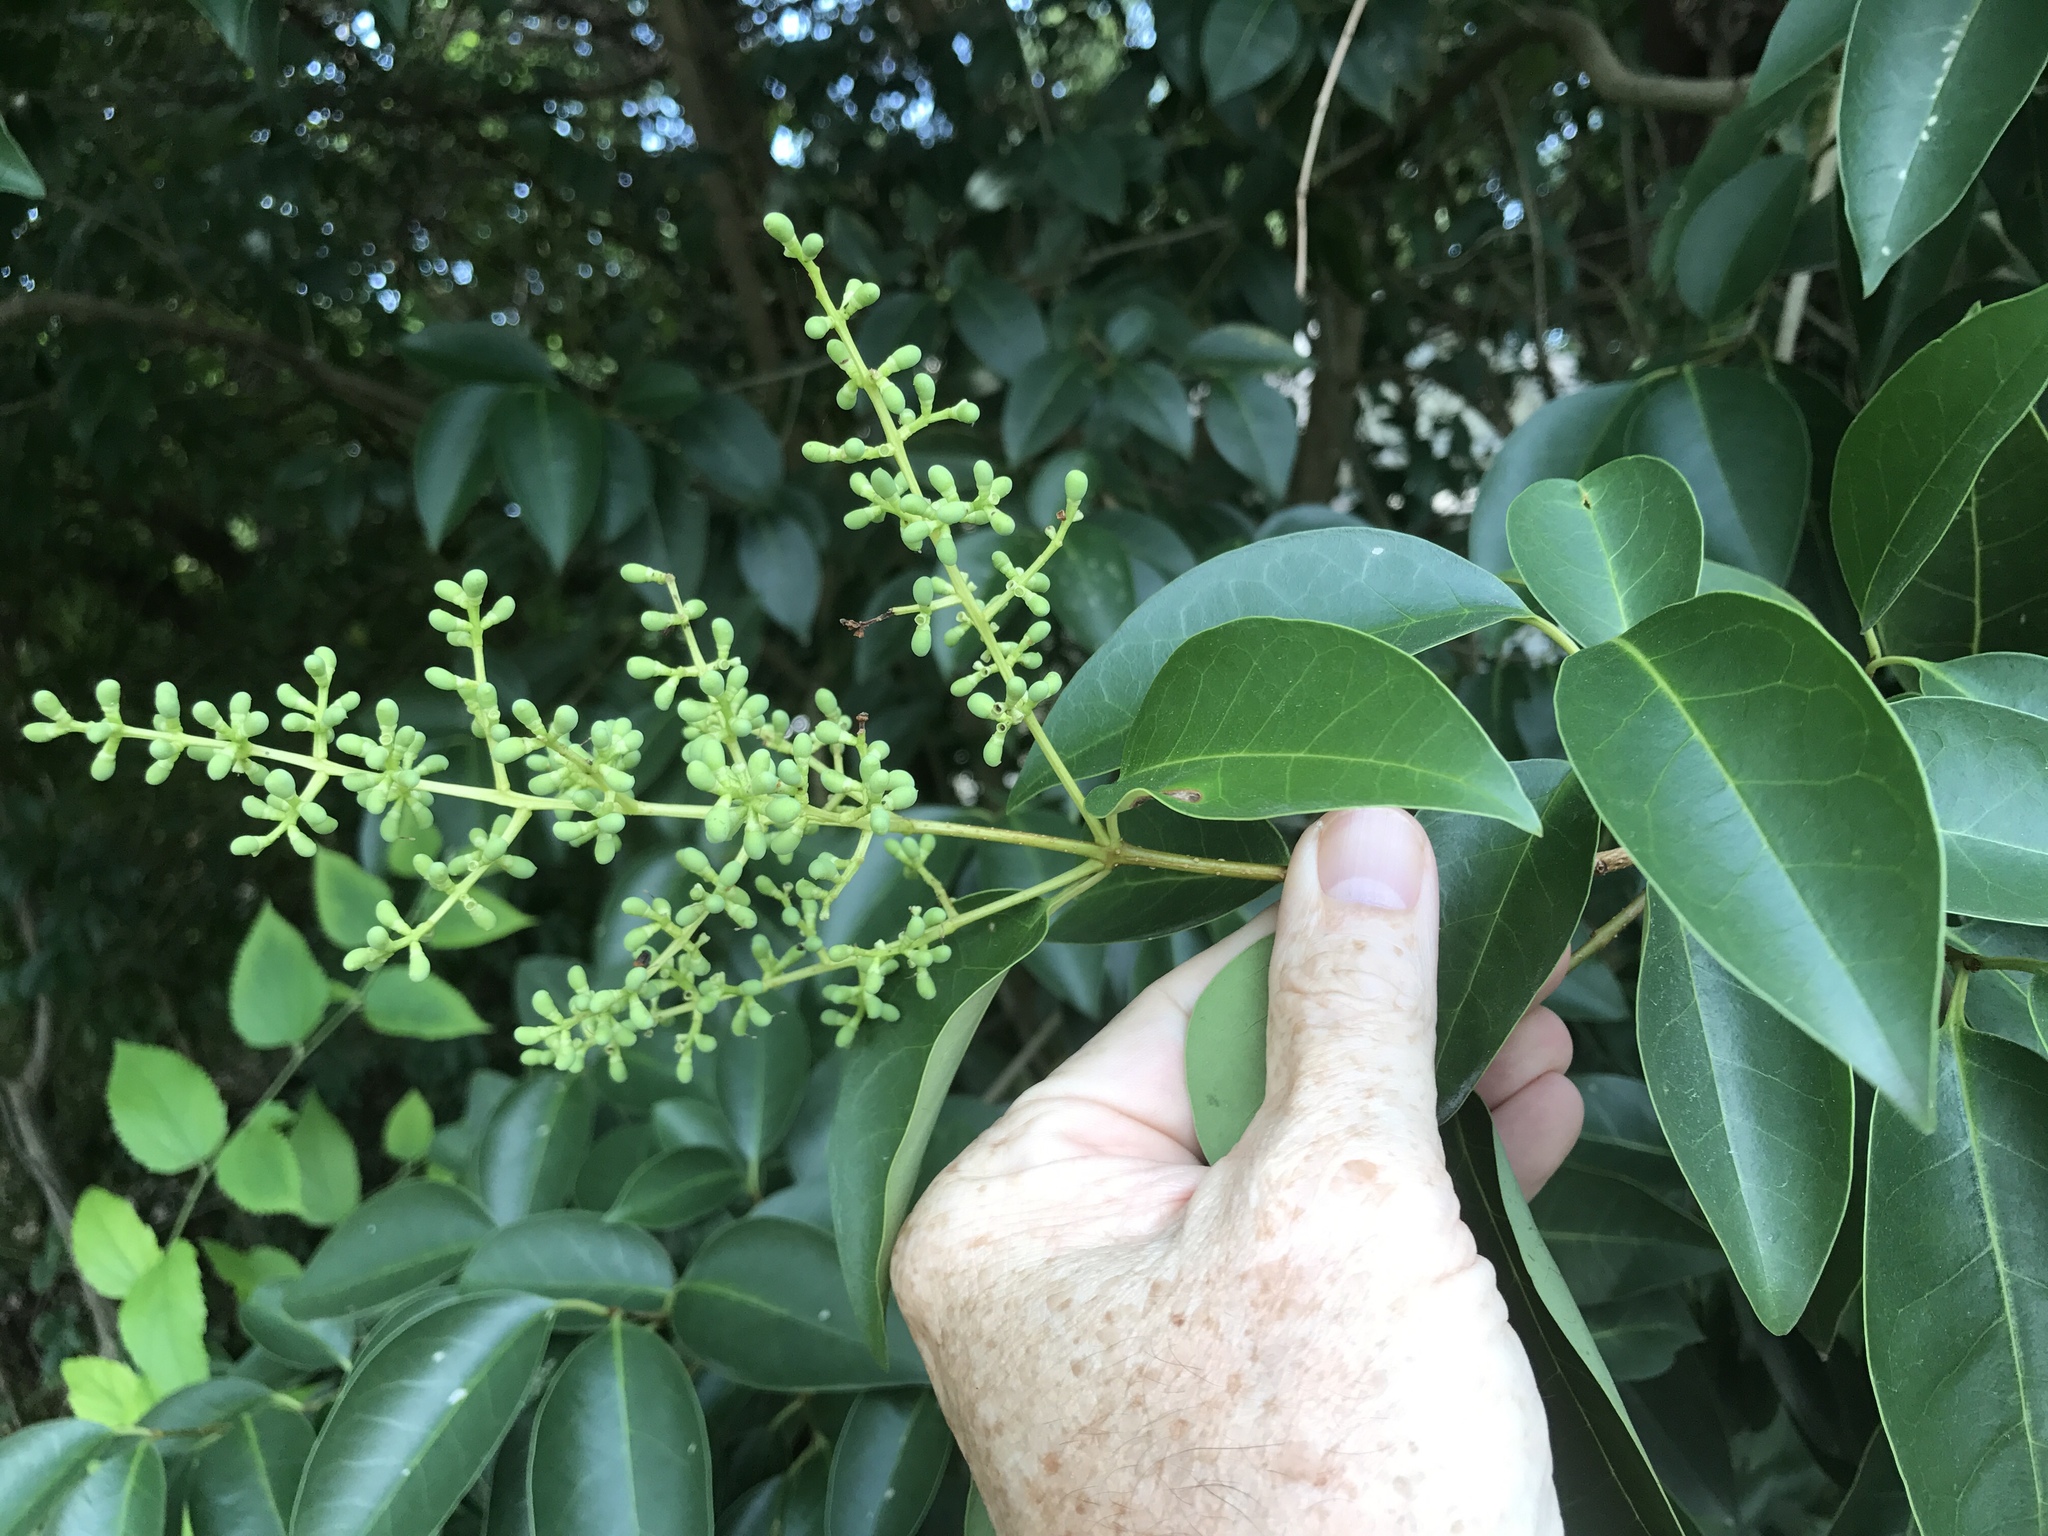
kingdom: Plantae
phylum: Tracheophyta
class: Magnoliopsida
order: Lamiales
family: Oleaceae
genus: Ligustrum
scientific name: Ligustrum lucidum
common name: Glossy privet
